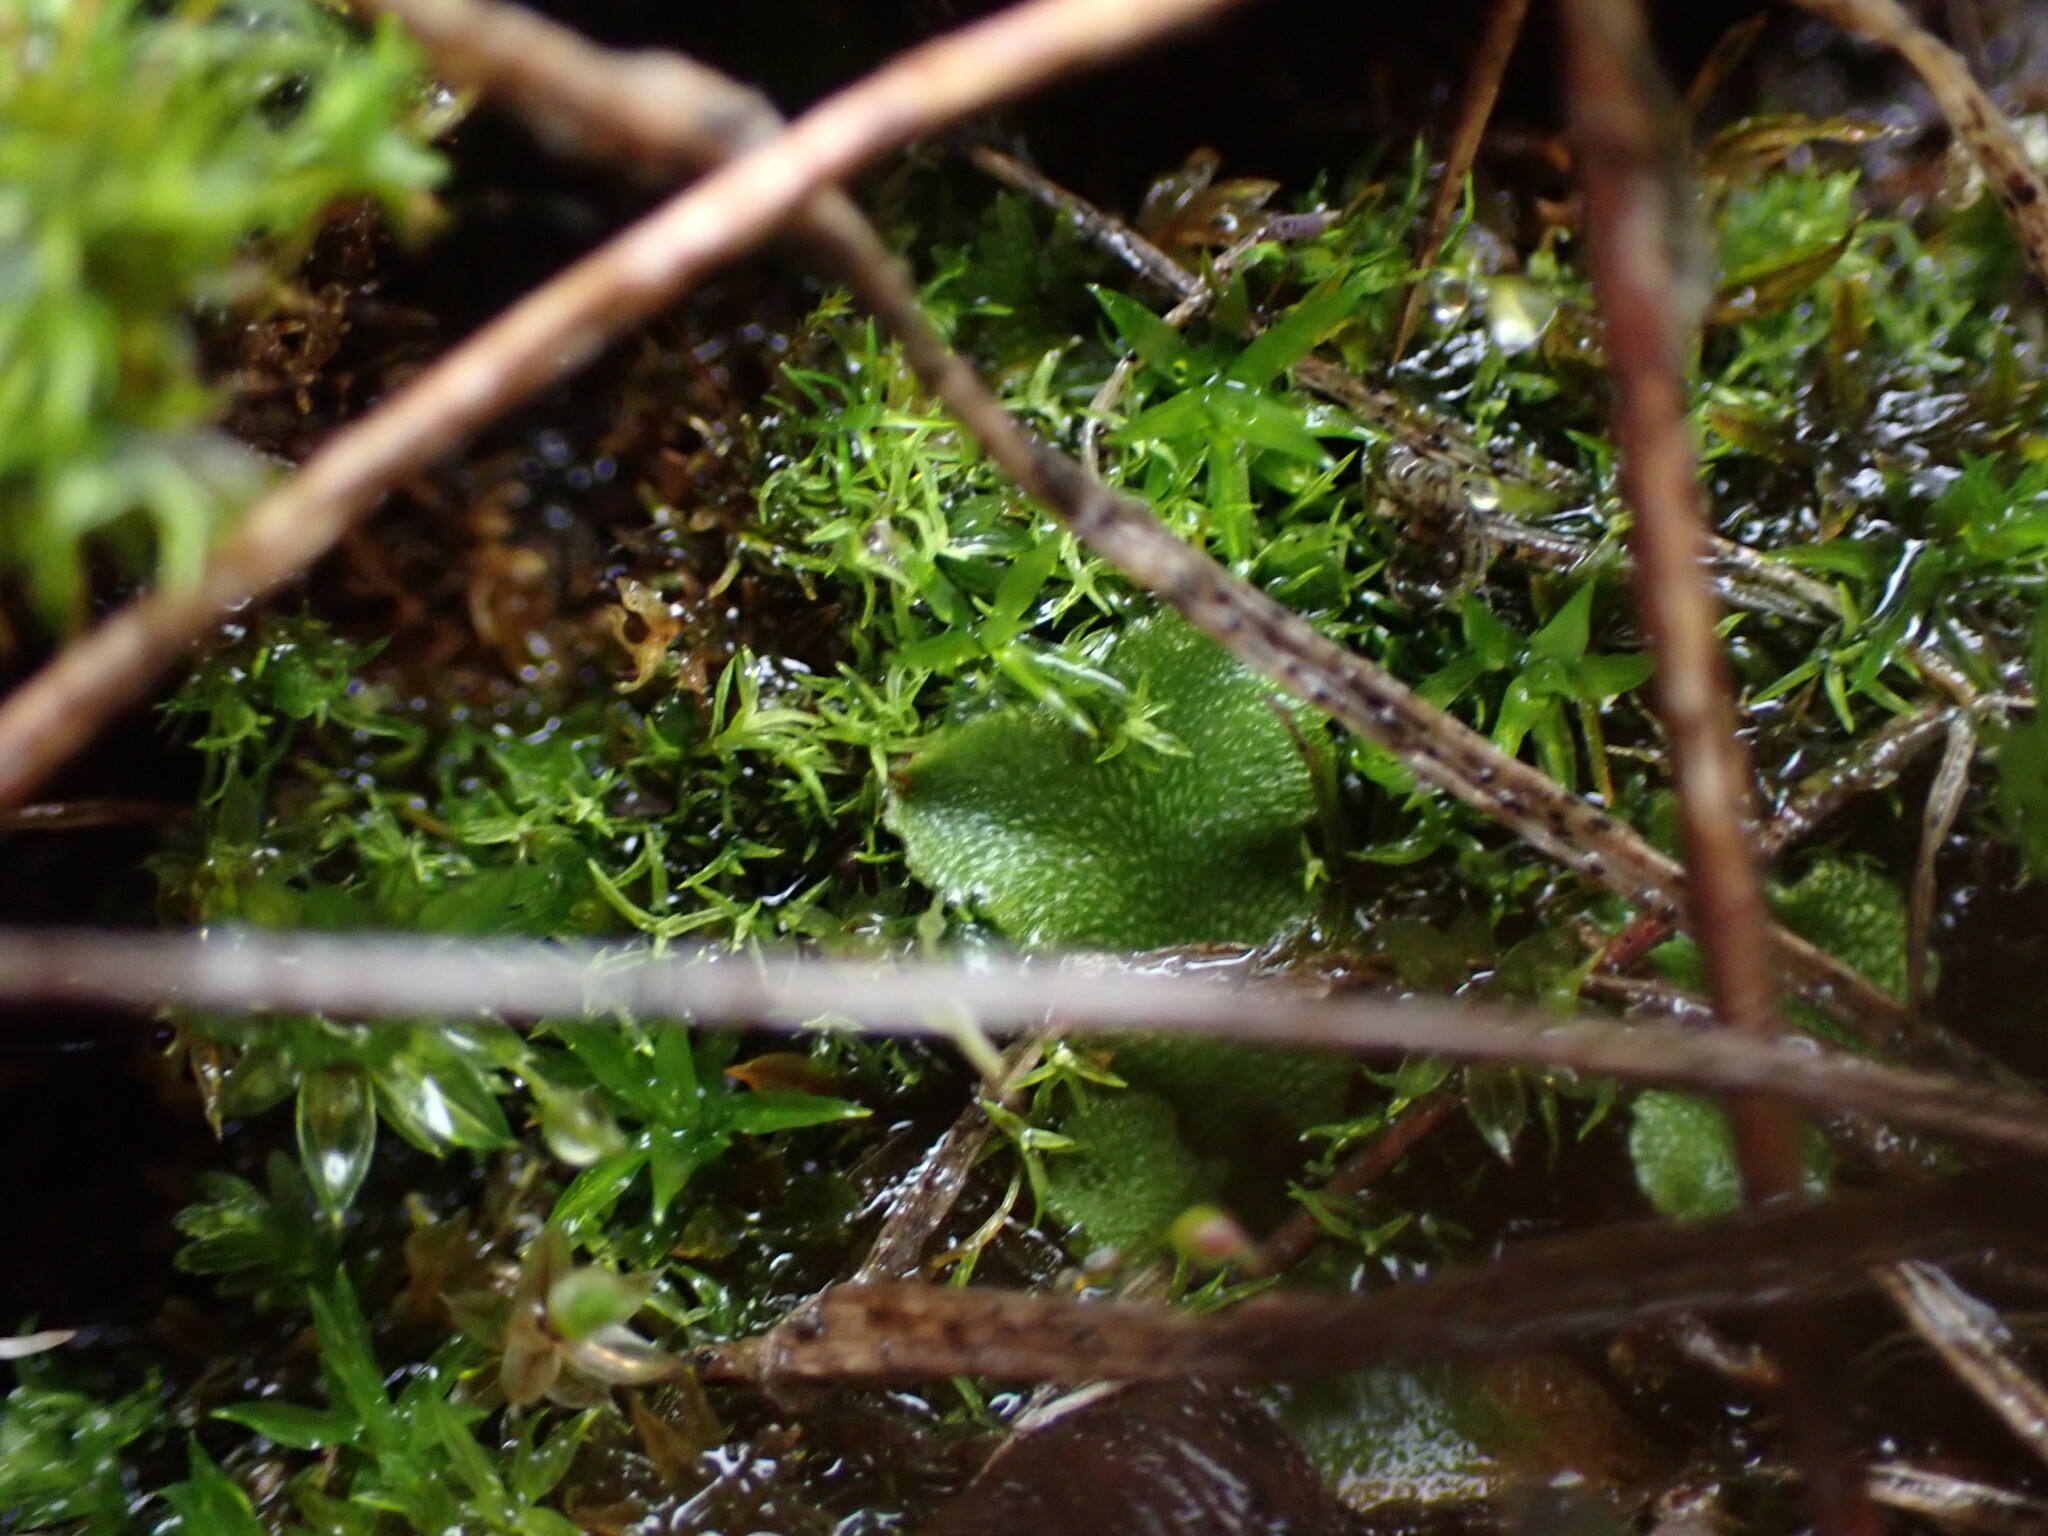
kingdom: Plantae
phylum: Marchantiophyta
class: Marchantiopsida
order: Marchantiales
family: Aytoniaceae
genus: Mannia
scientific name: Mannia gracilis
